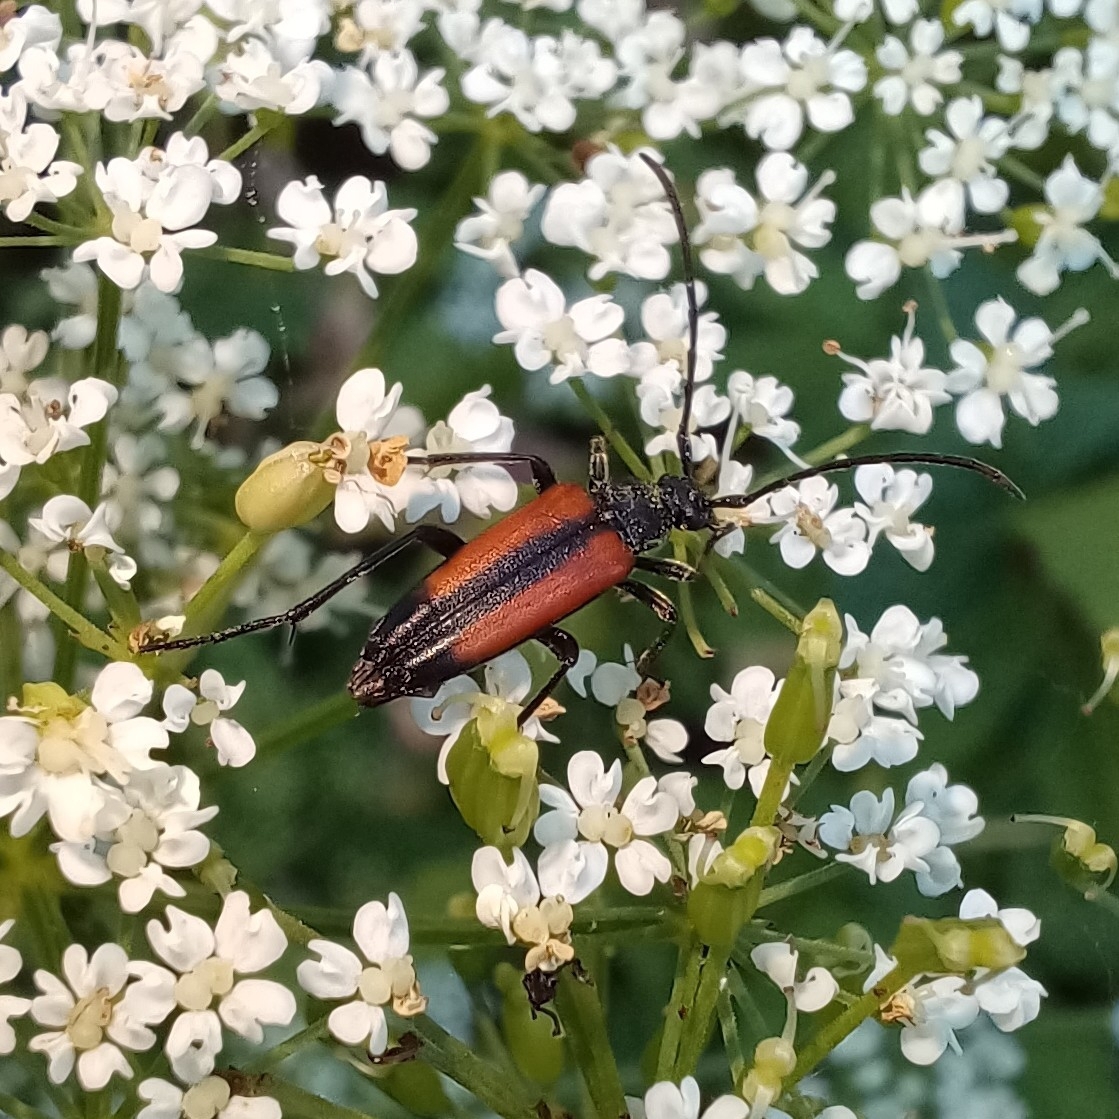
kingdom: Animalia
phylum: Arthropoda
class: Insecta
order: Coleoptera
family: Cerambycidae
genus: Stenurella
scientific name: Stenurella melanura
